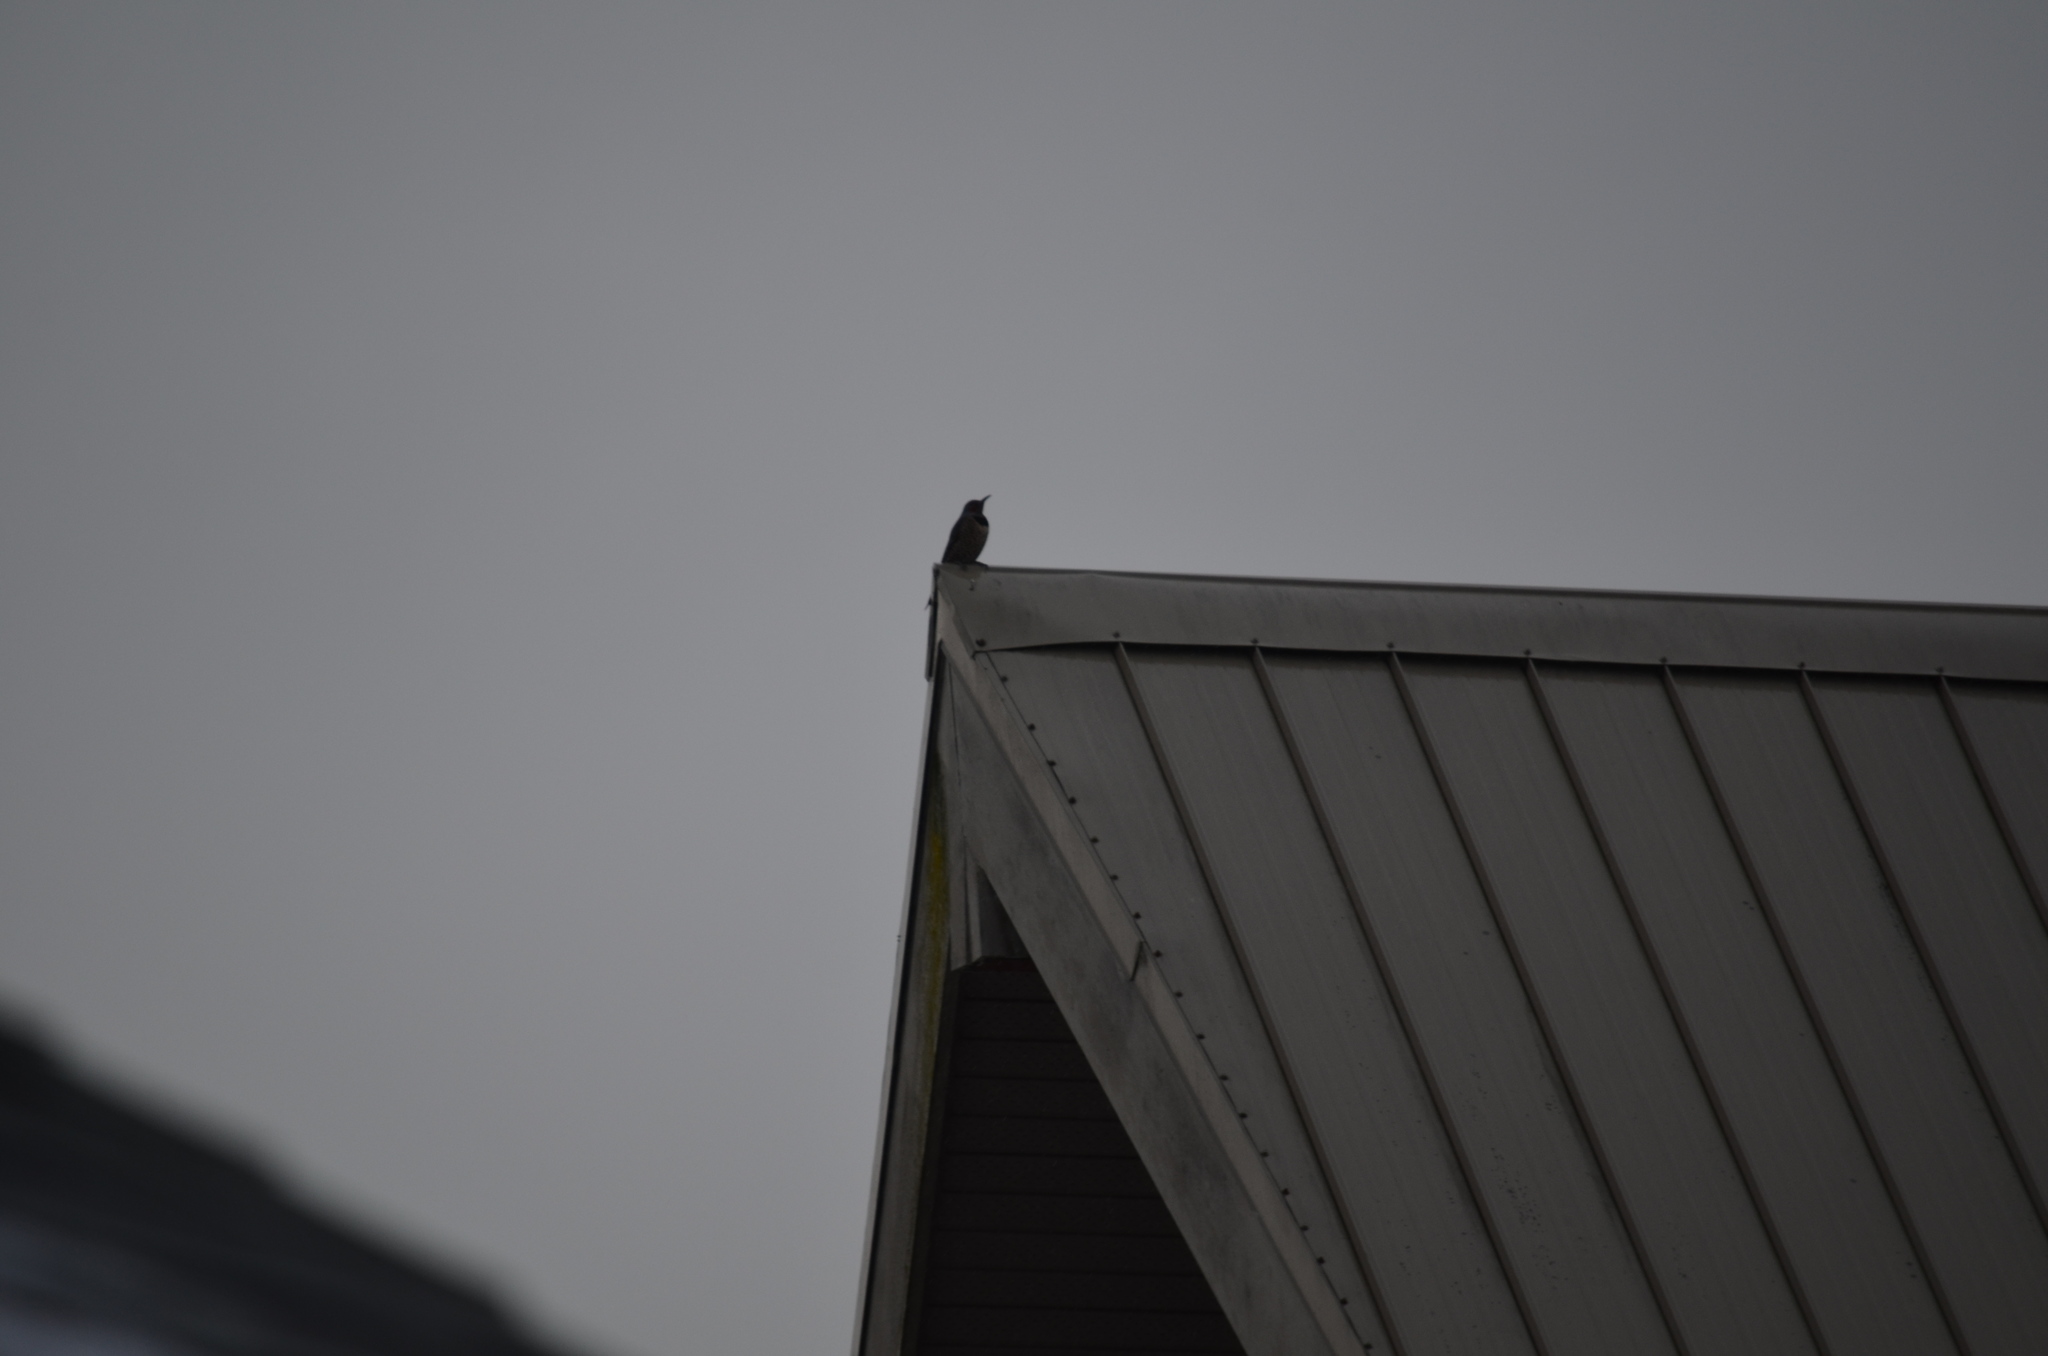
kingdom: Animalia
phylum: Chordata
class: Aves
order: Piciformes
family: Picidae
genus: Colaptes
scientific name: Colaptes auratus
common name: Northern flicker
